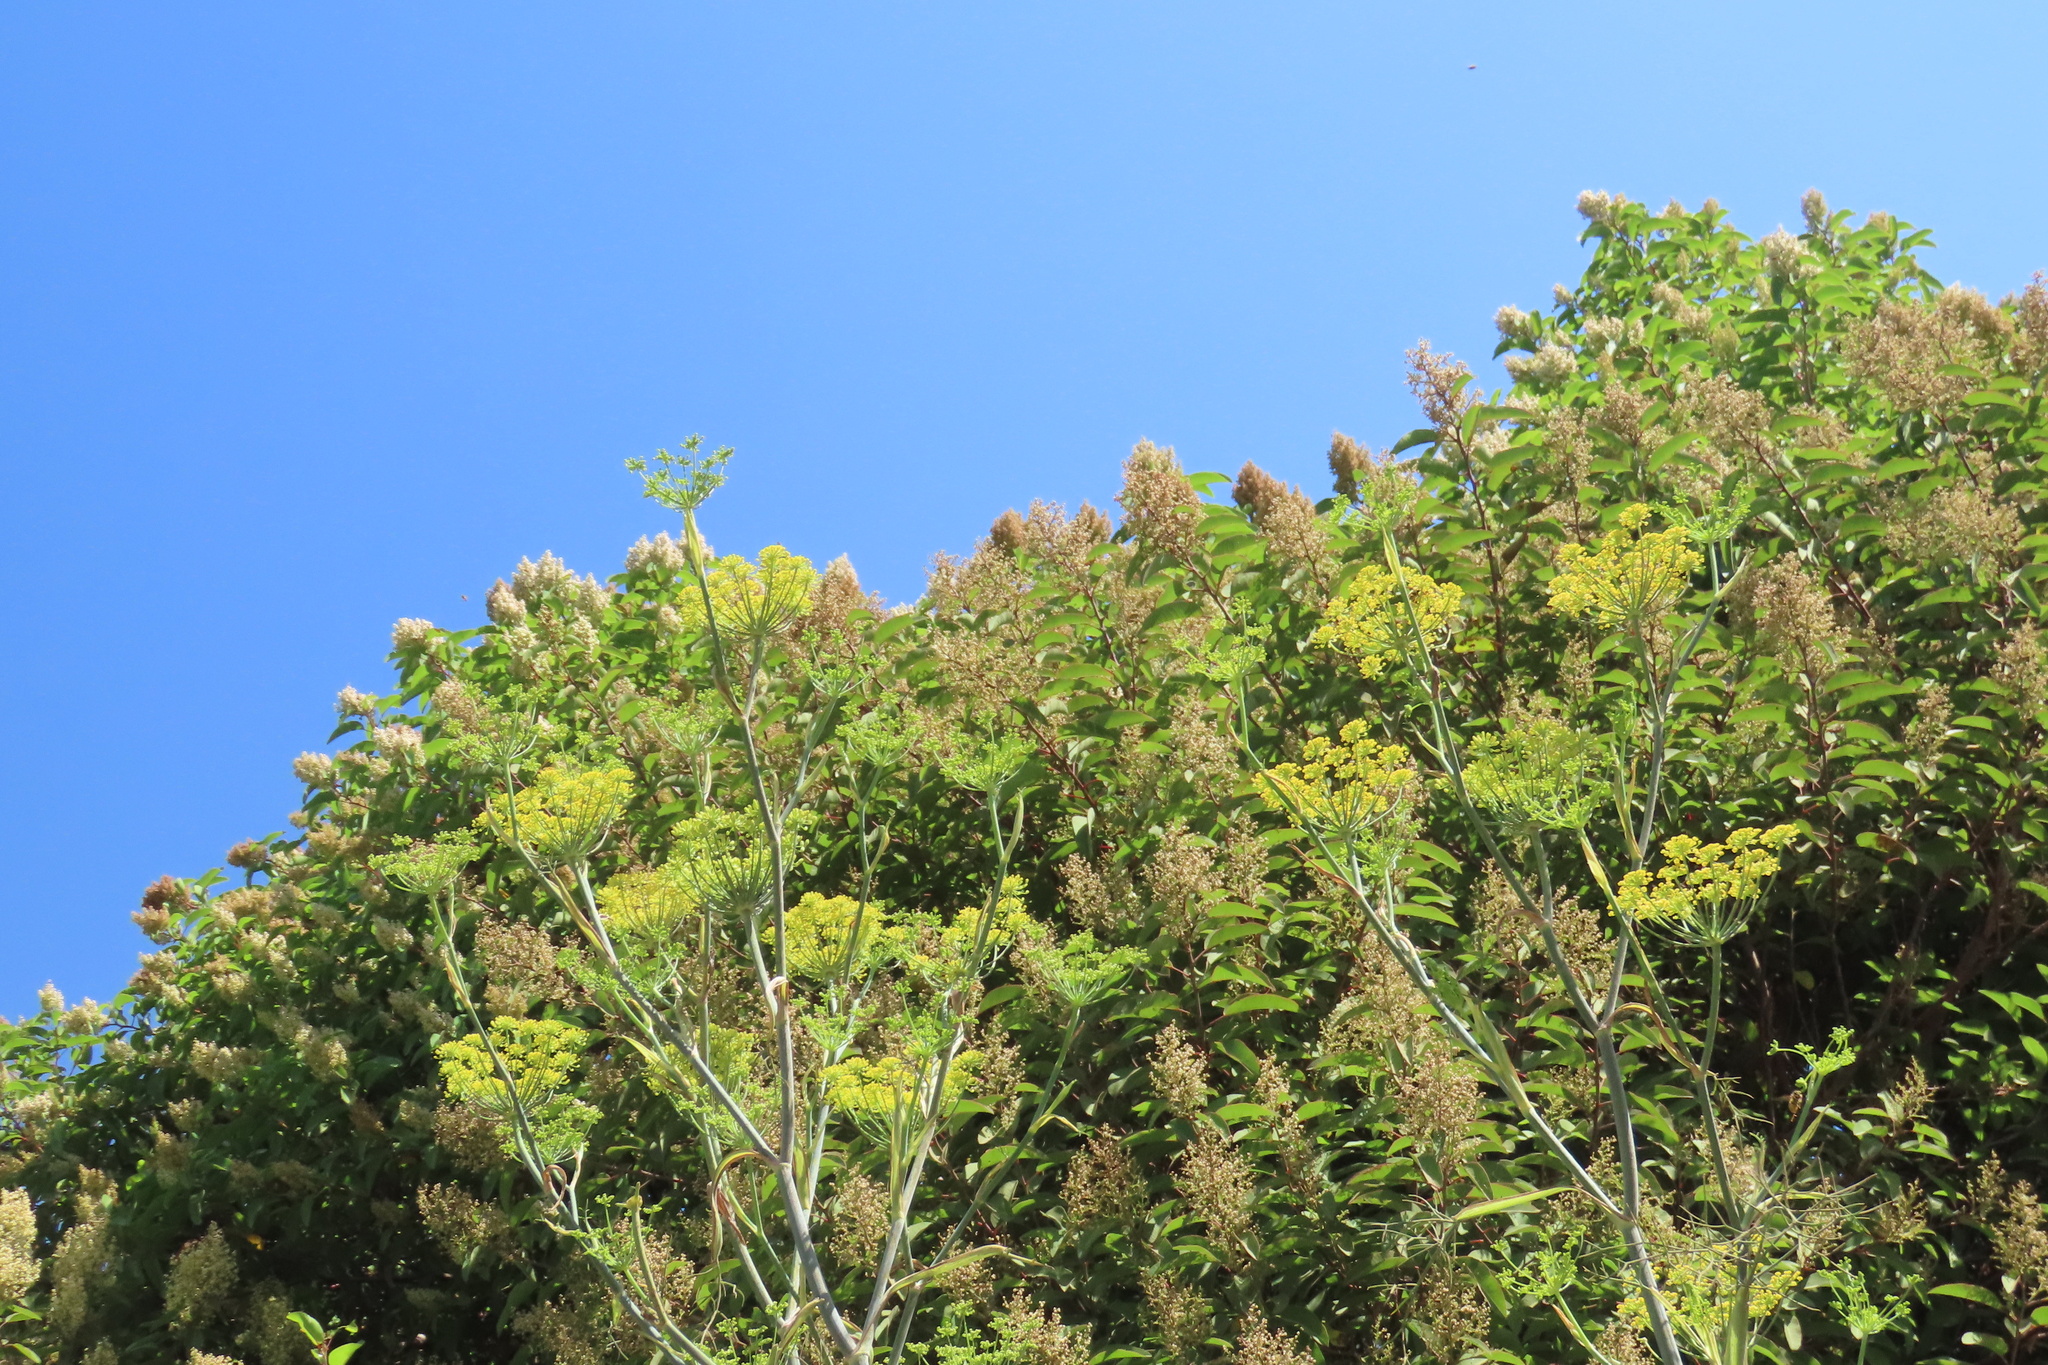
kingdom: Plantae
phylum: Tracheophyta
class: Magnoliopsida
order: Apiales
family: Apiaceae
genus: Foeniculum
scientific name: Foeniculum vulgare
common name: Fennel
